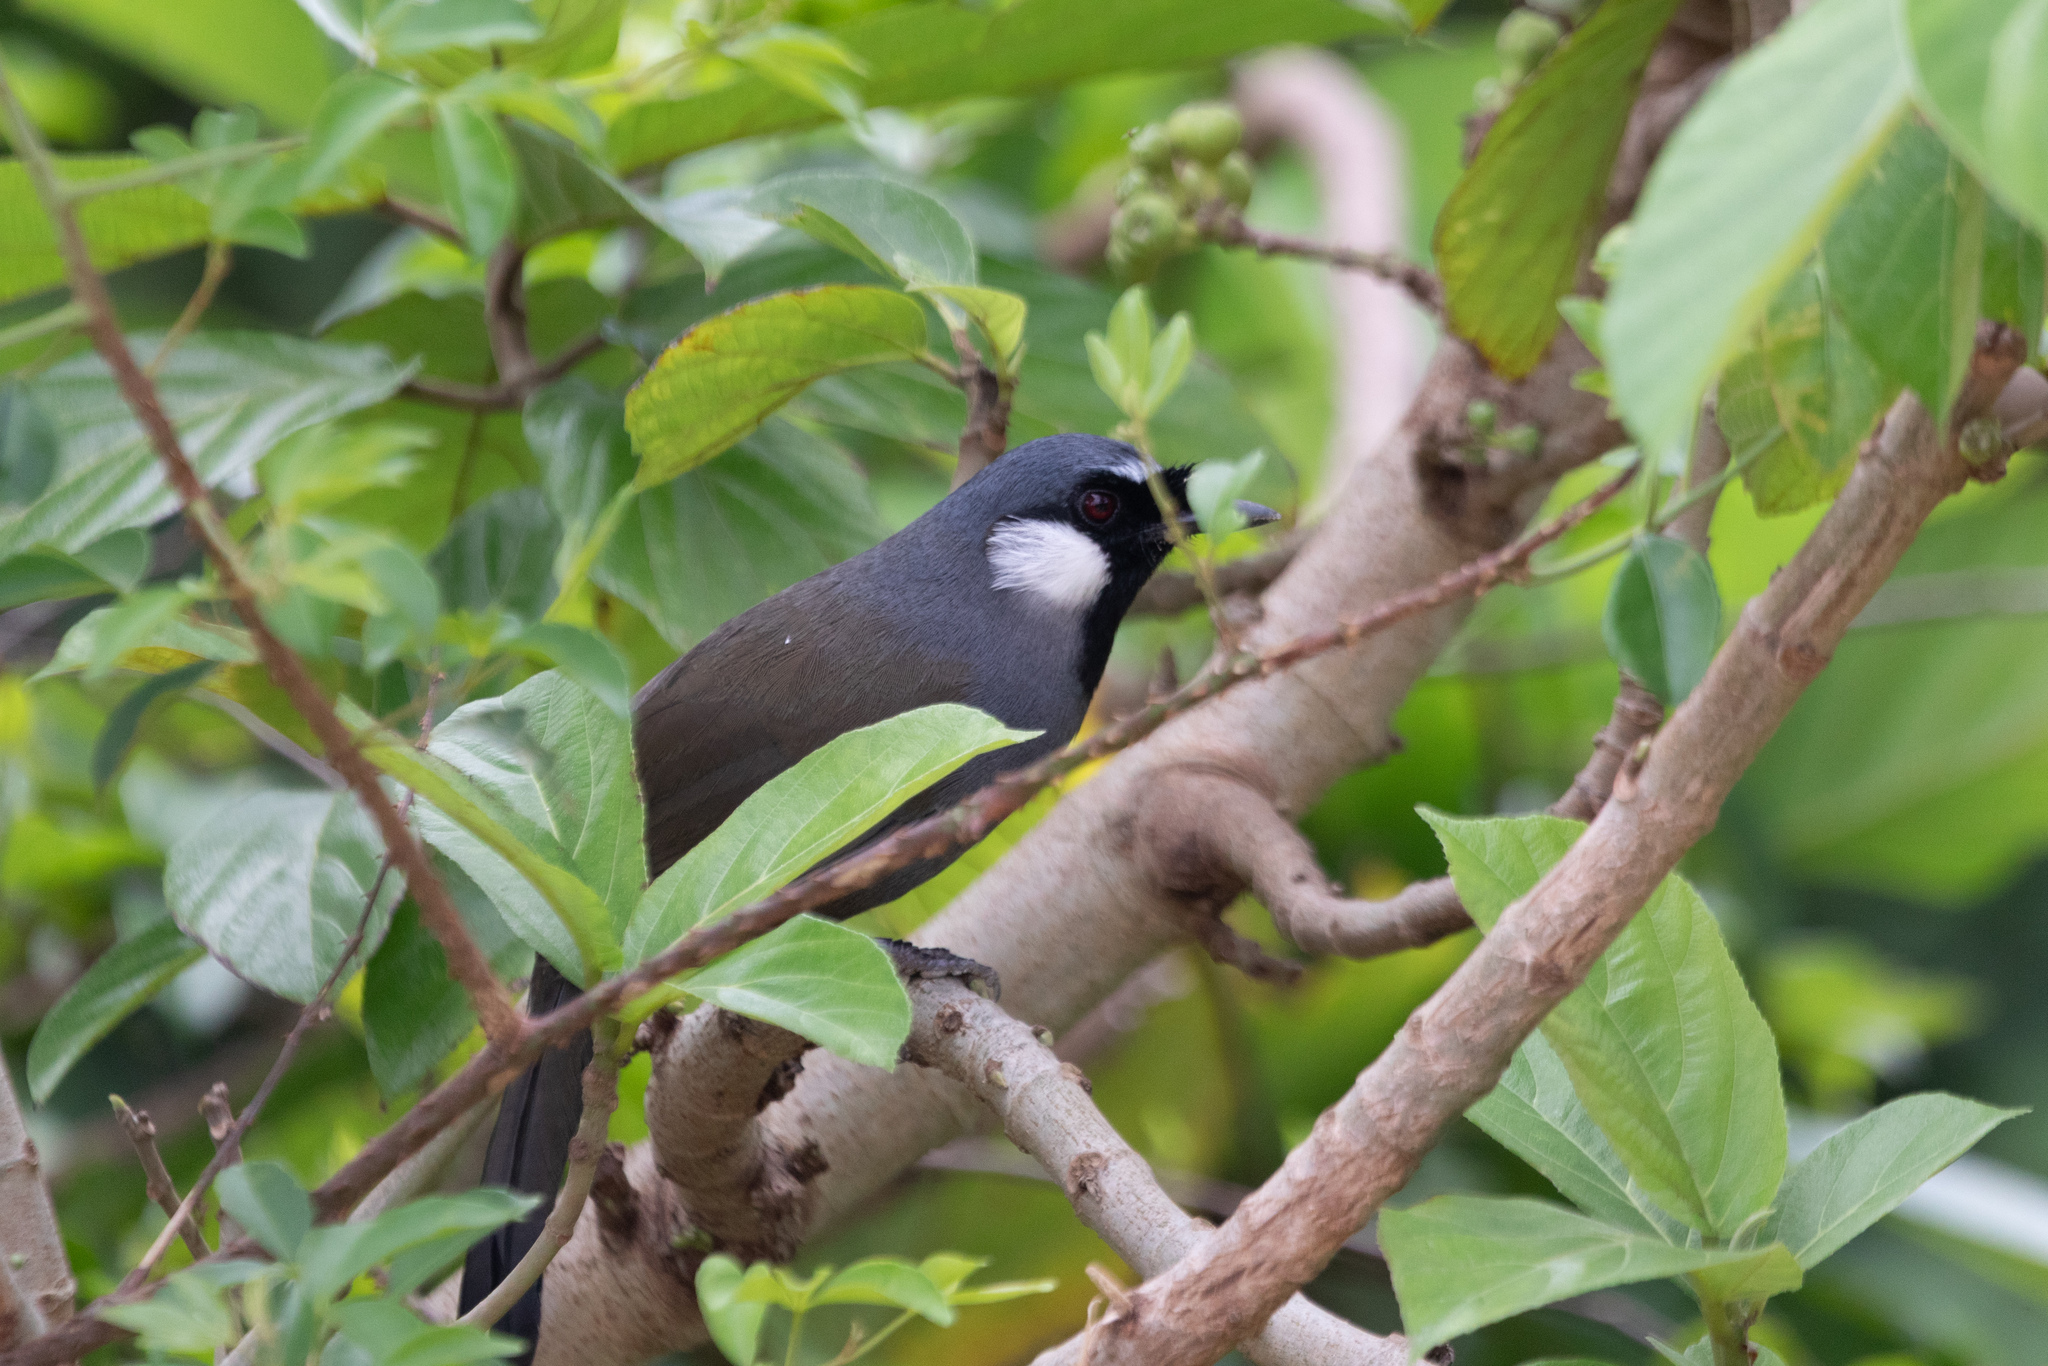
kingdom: Animalia
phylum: Chordata
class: Aves
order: Passeriformes
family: Leiothrichidae
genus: Garrulax
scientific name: Garrulax chinensis
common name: Black-throated laughingthrush
